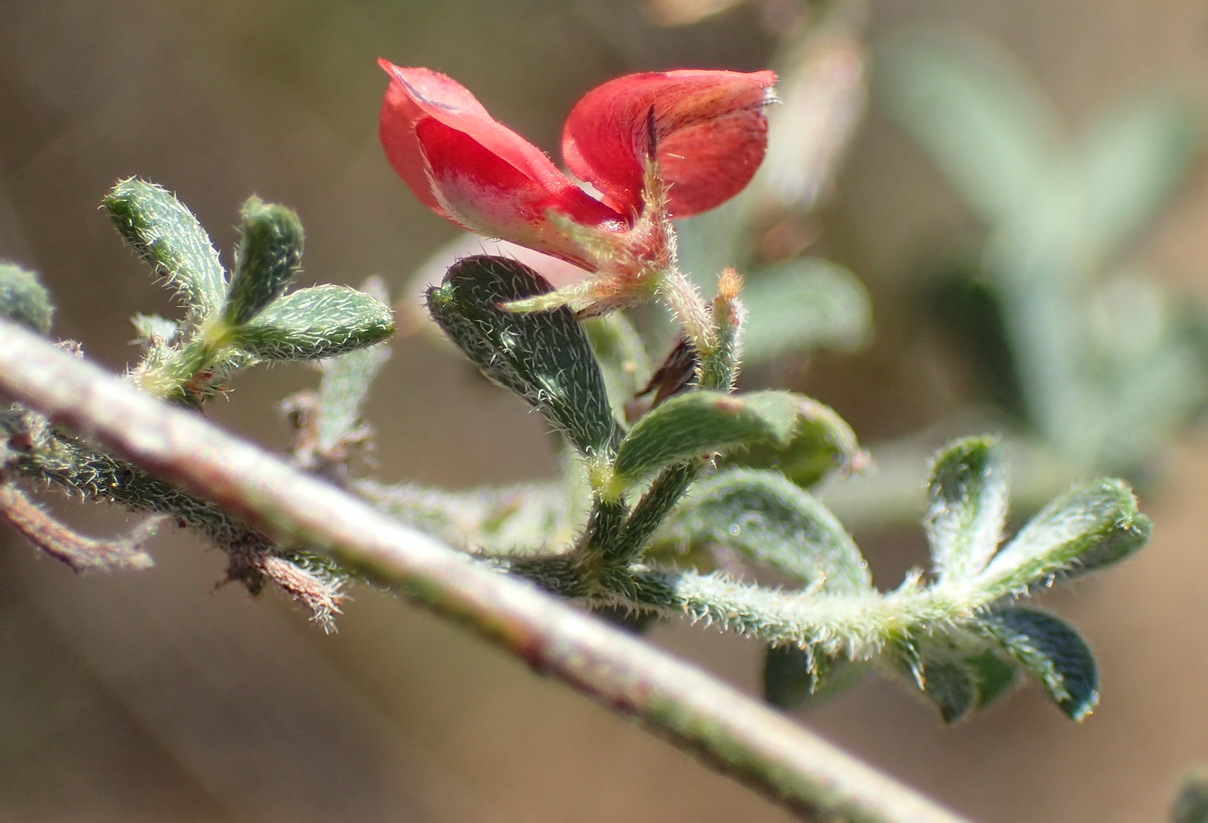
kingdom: Plantae
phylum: Tracheophyta
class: Magnoliopsida
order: Fabales
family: Fabaceae
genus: Indigofera
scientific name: Indigofera priorii
